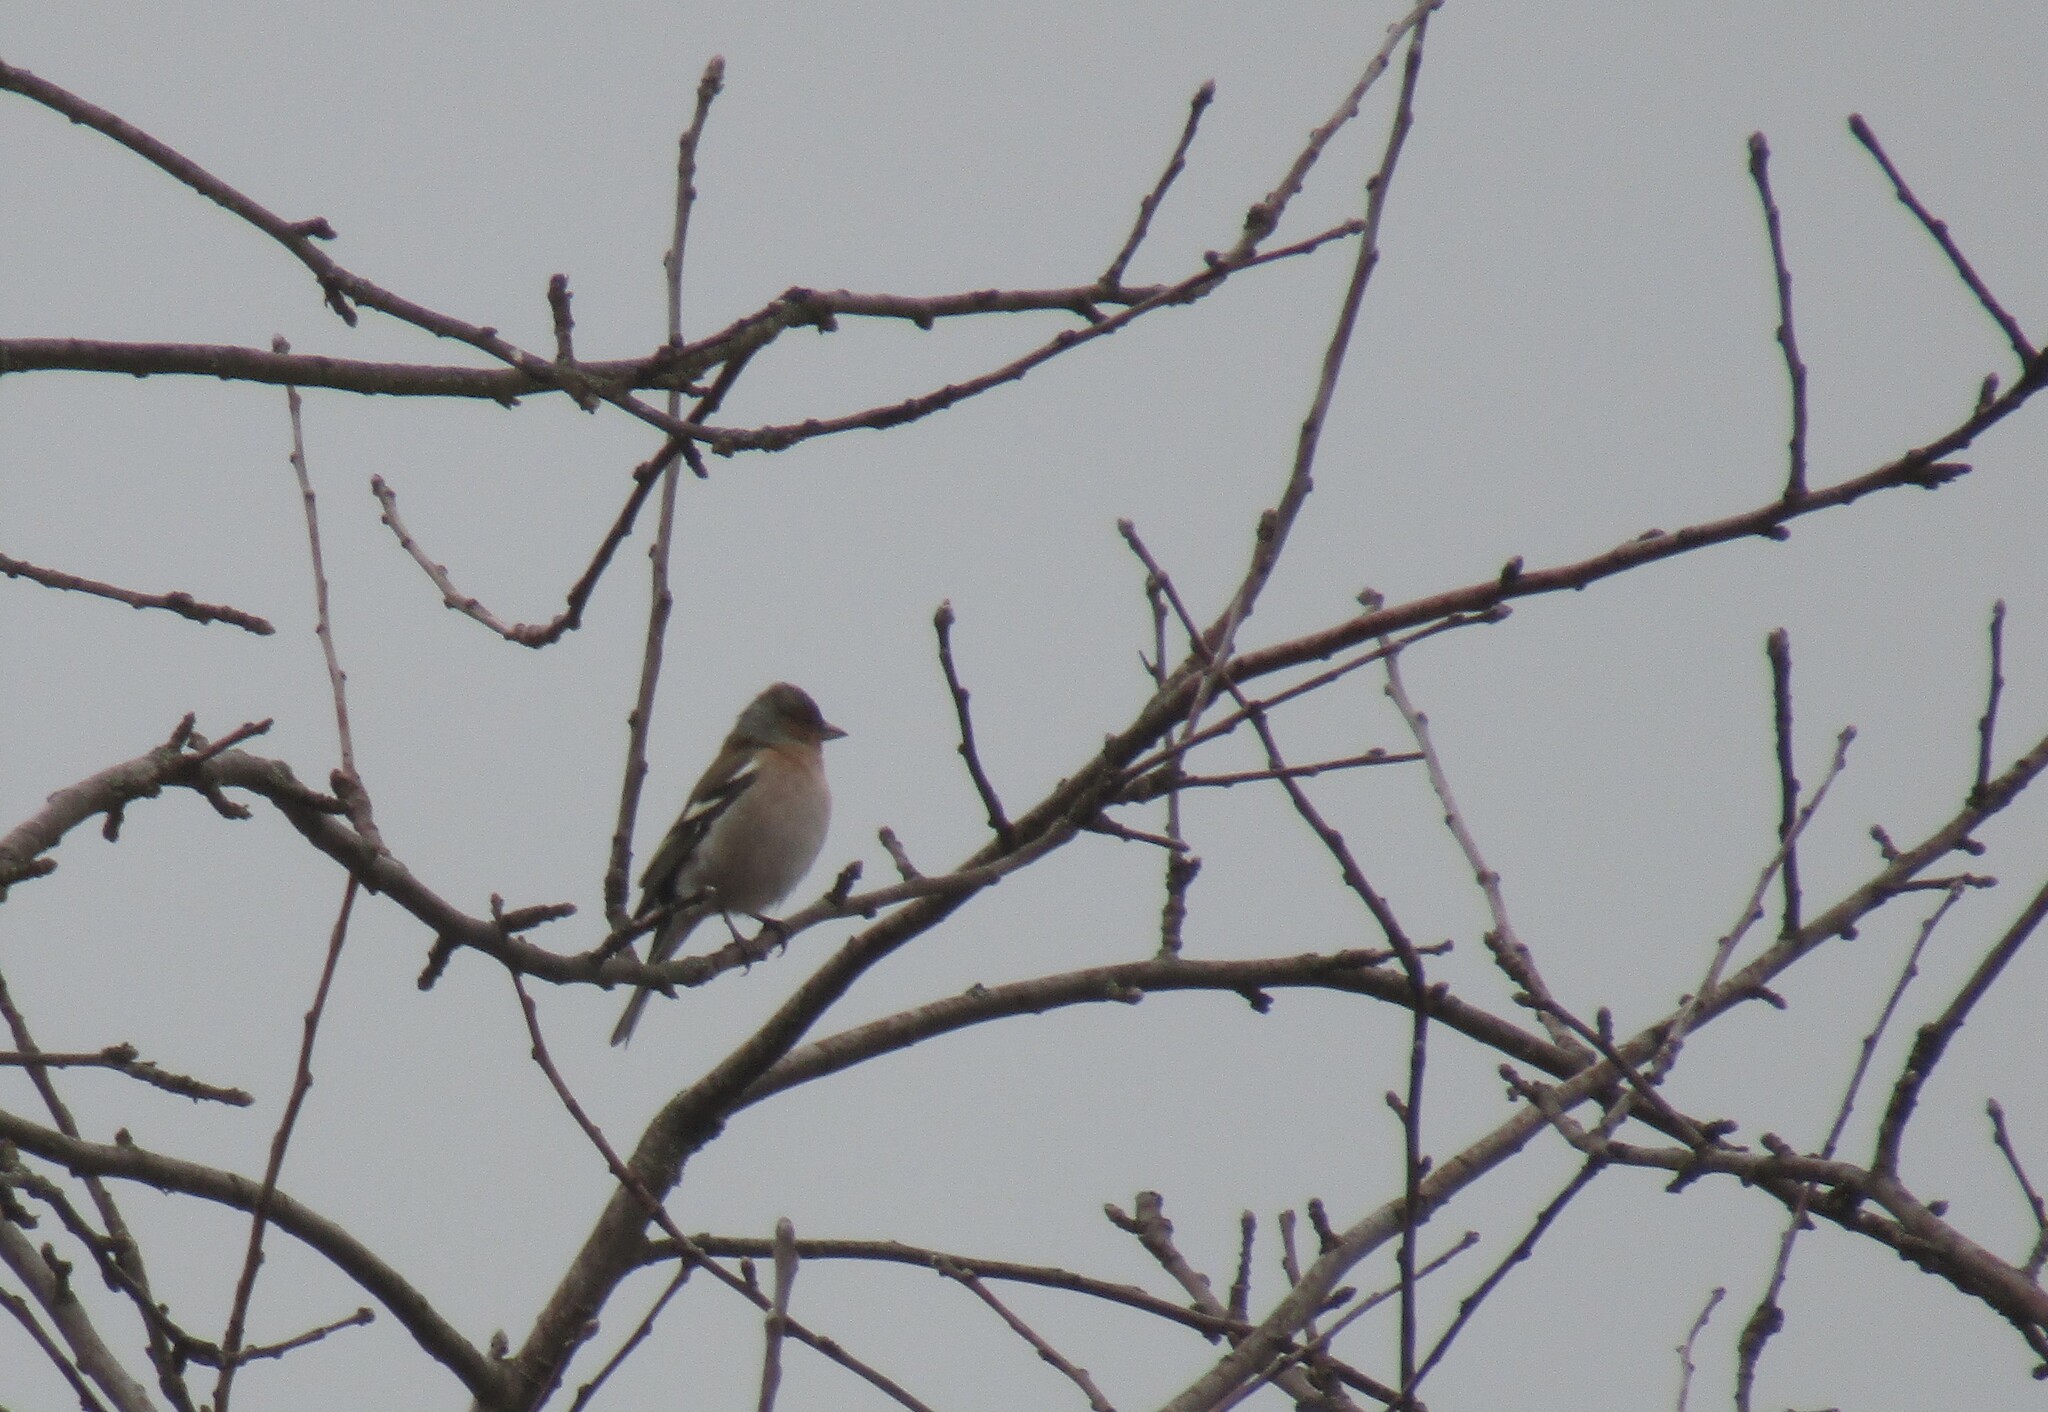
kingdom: Animalia
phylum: Chordata
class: Aves
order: Passeriformes
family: Fringillidae
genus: Fringilla
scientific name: Fringilla coelebs
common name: Common chaffinch
